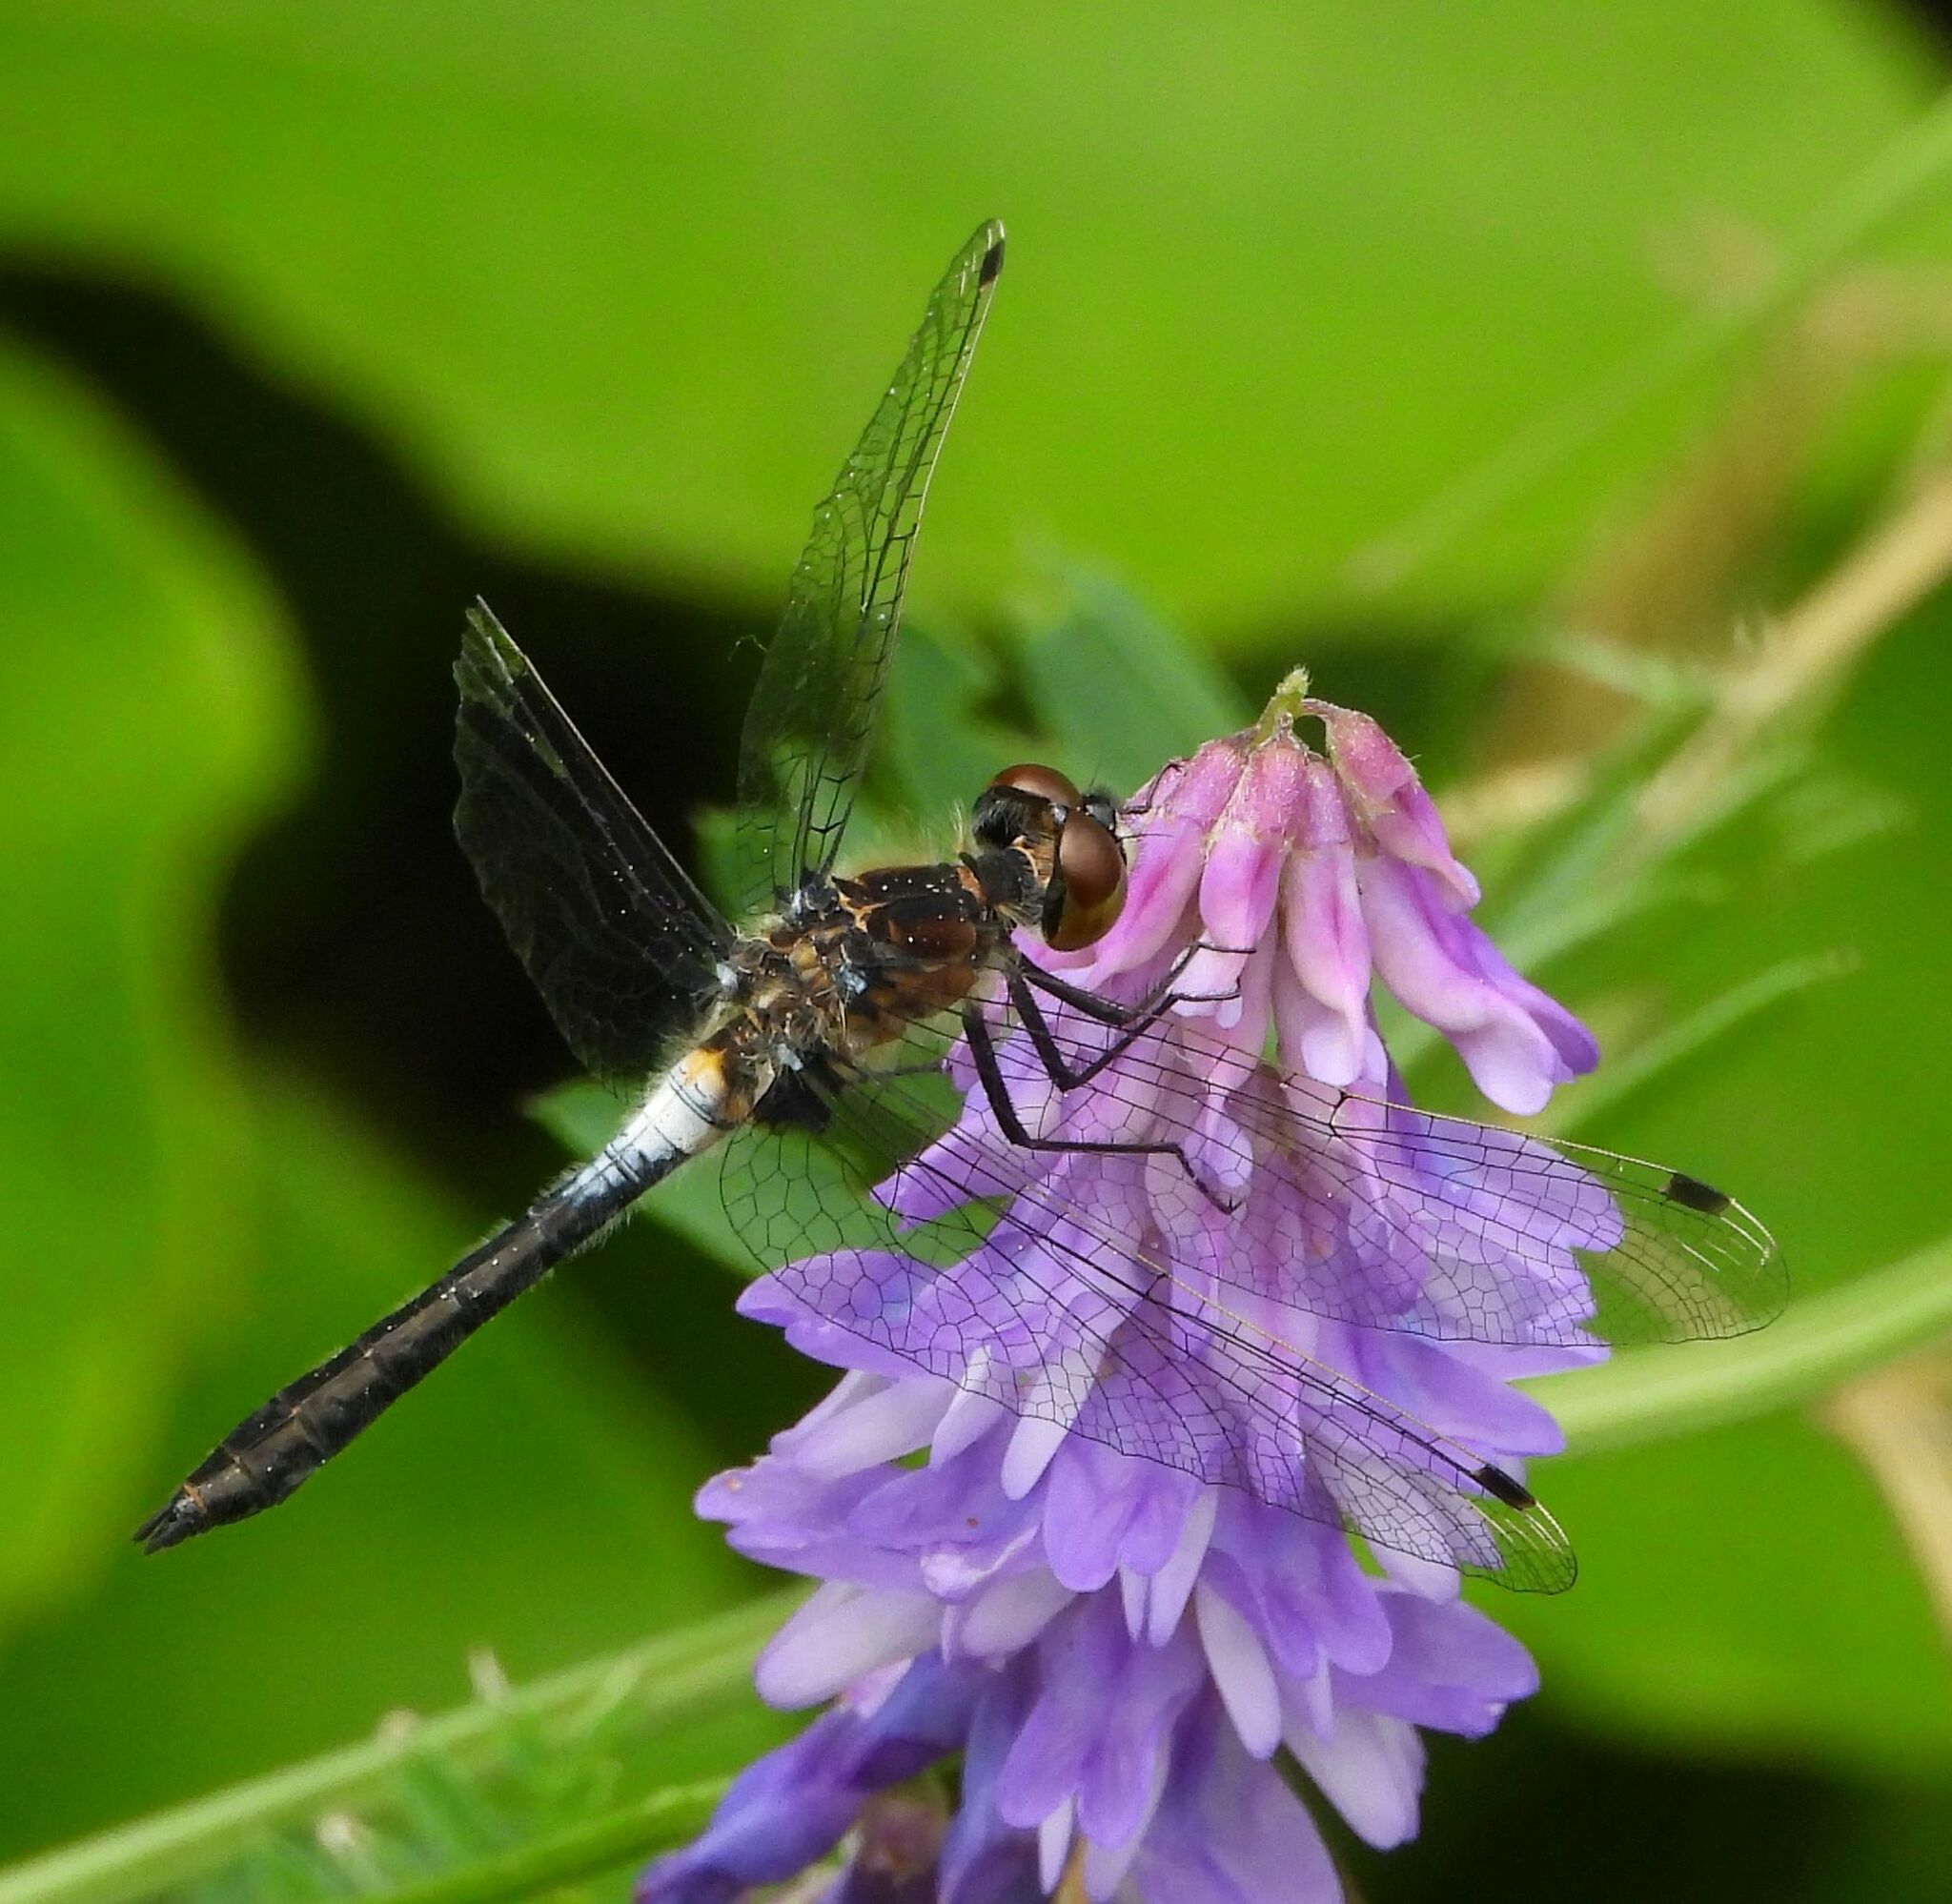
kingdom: Animalia
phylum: Arthropoda
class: Insecta
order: Odonata
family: Libellulidae
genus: Leucorrhinia
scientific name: Leucorrhinia frigida
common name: Frosted whiteface
